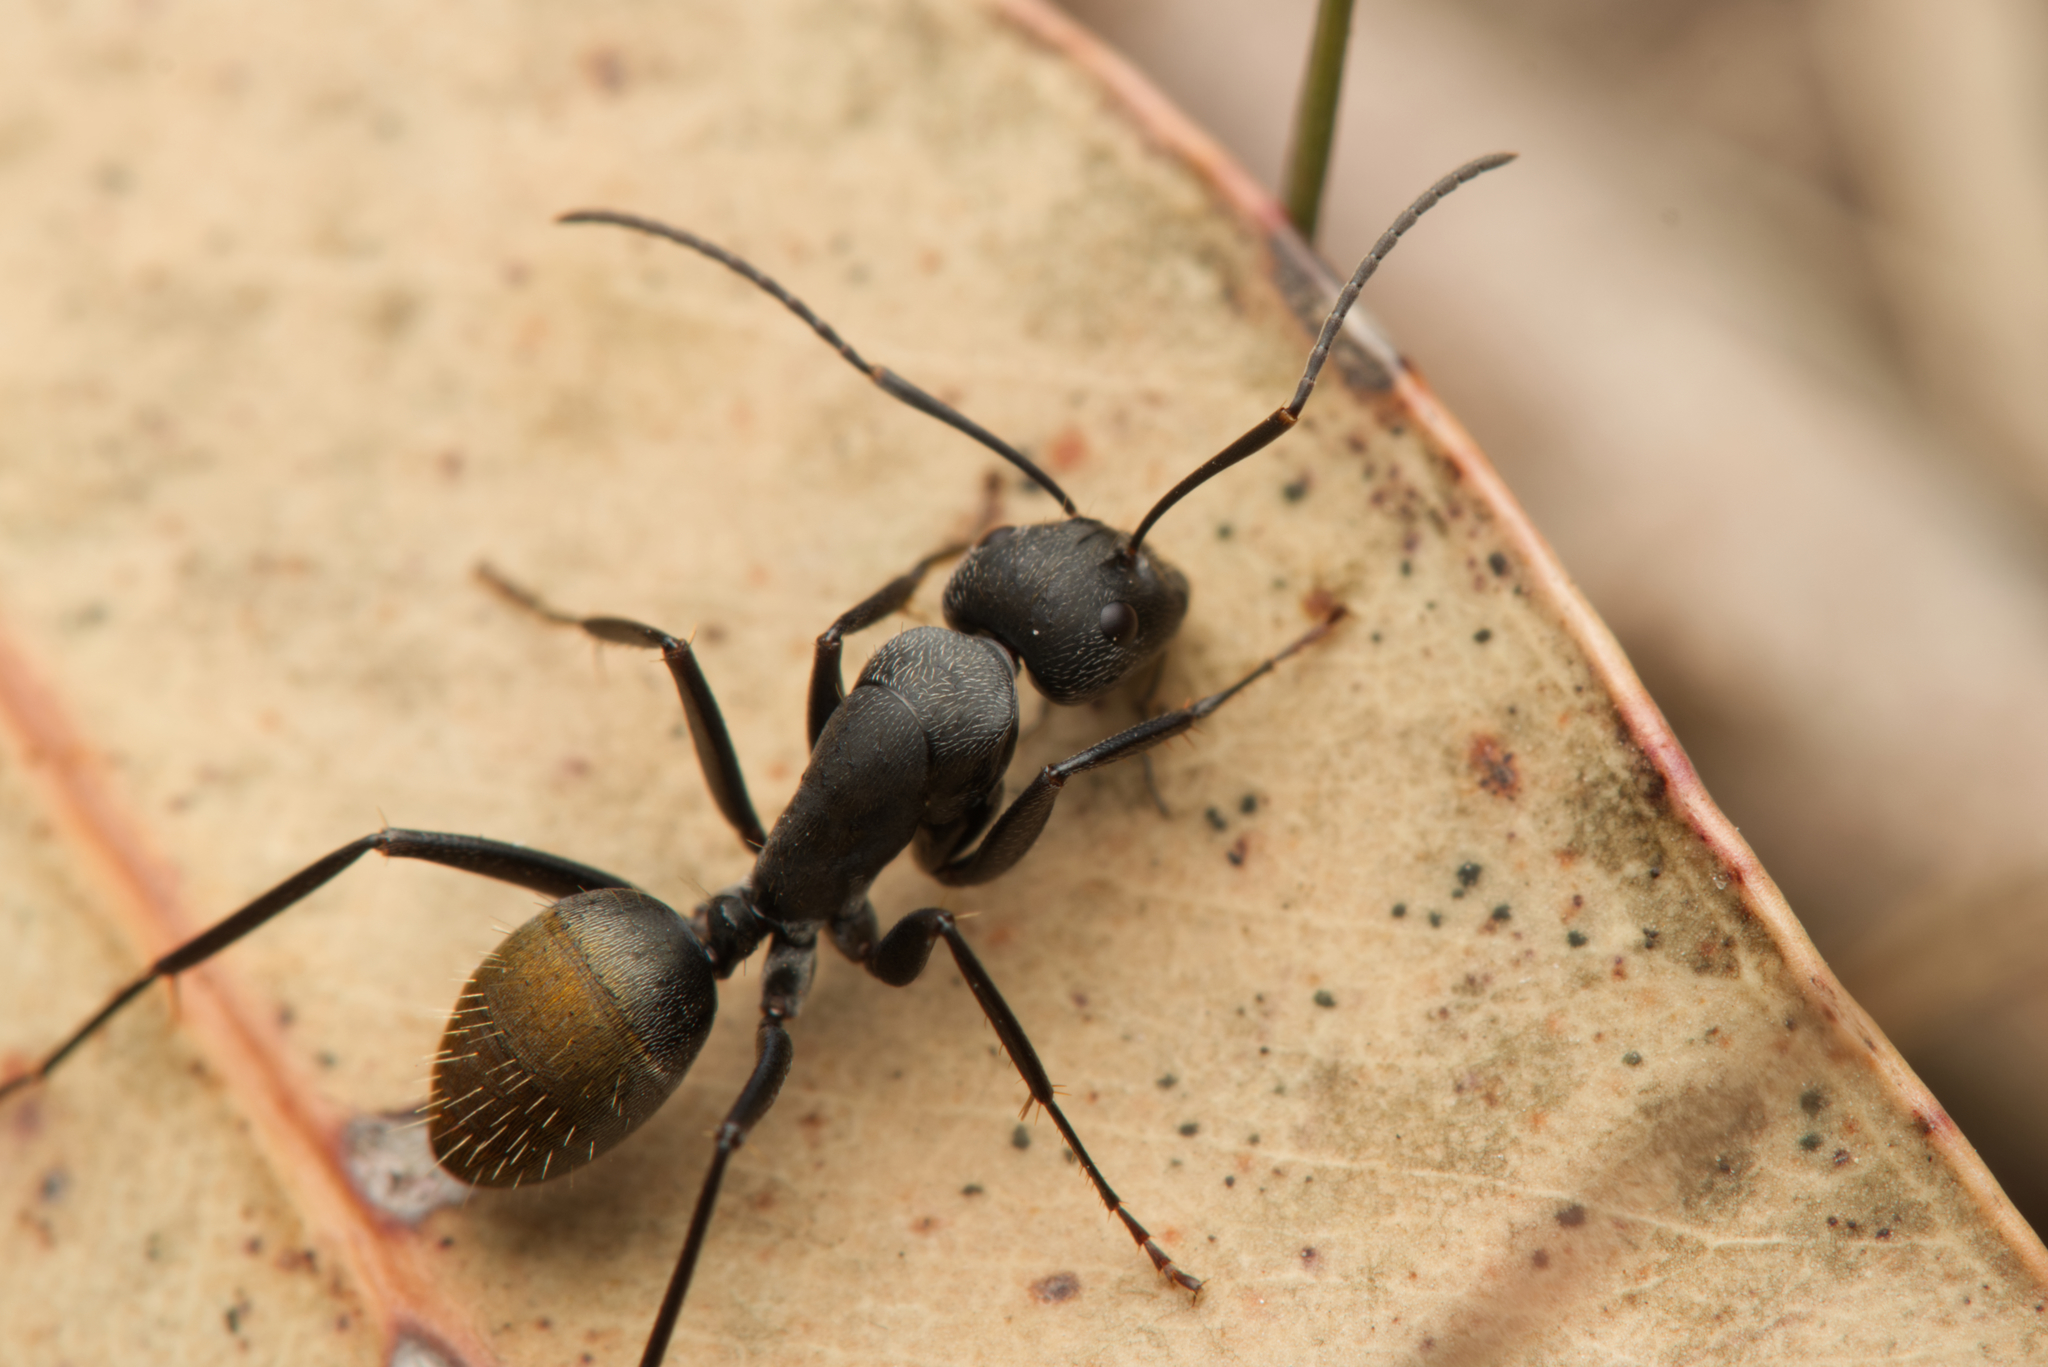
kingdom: Animalia
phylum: Arthropoda
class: Insecta
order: Hymenoptera
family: Formicidae
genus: Camponotus
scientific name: Camponotus aeneopilosus
